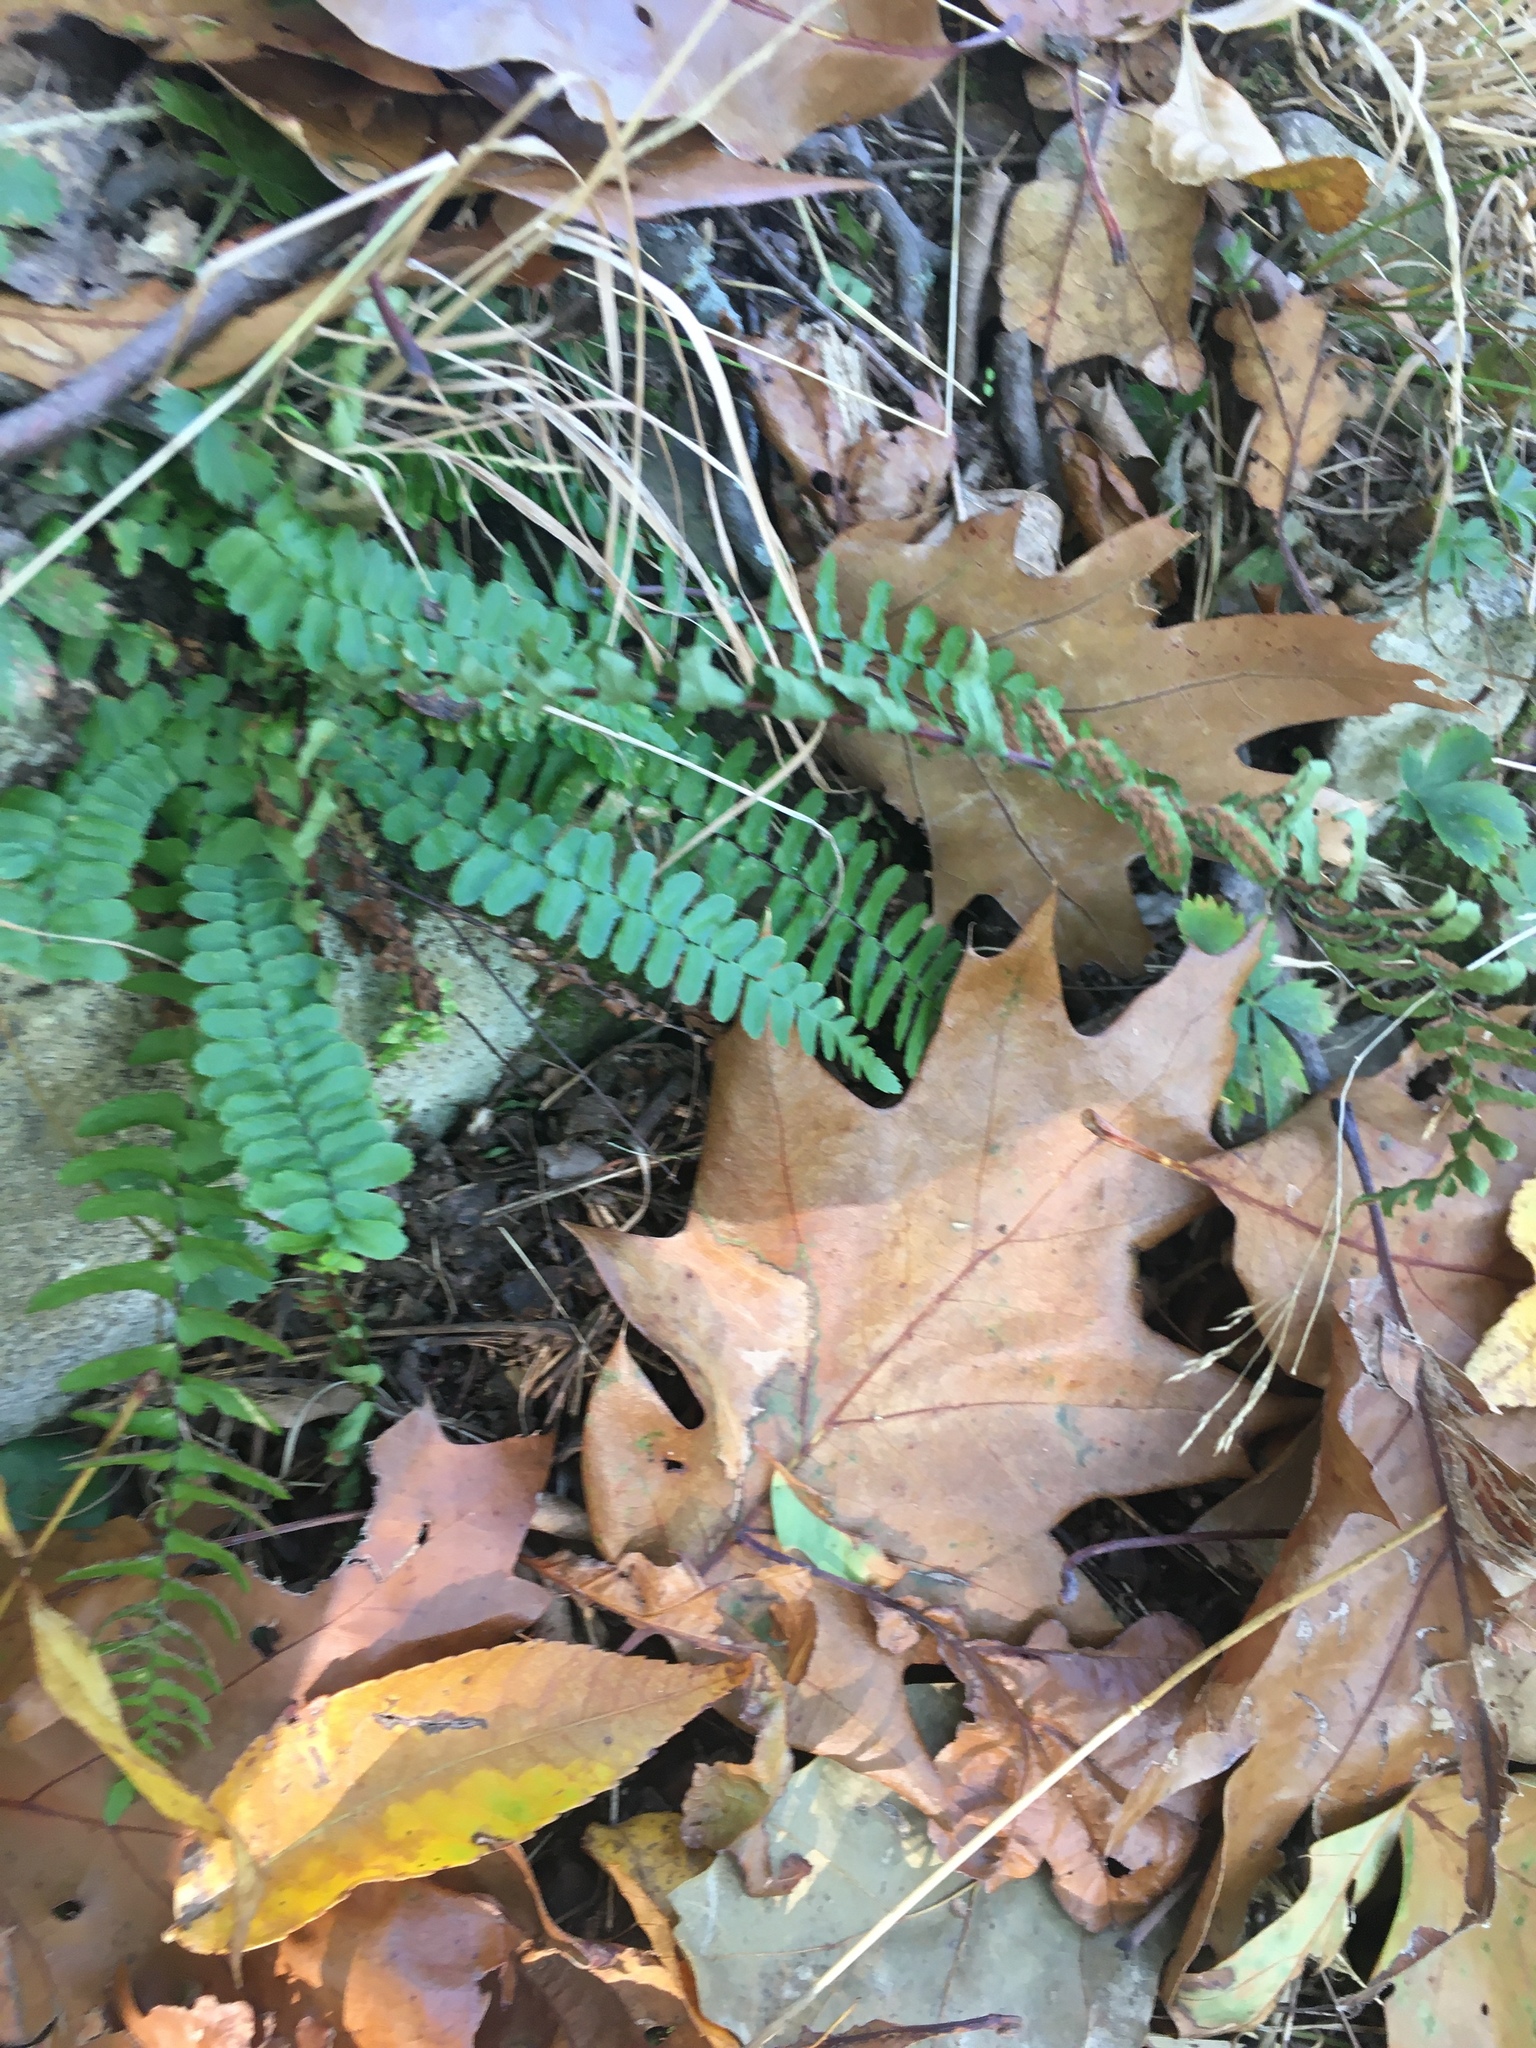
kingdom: Plantae
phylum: Tracheophyta
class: Polypodiopsida
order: Polypodiales
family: Aspleniaceae
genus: Asplenium
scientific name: Asplenium platyneuron
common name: Ebony spleenwort
